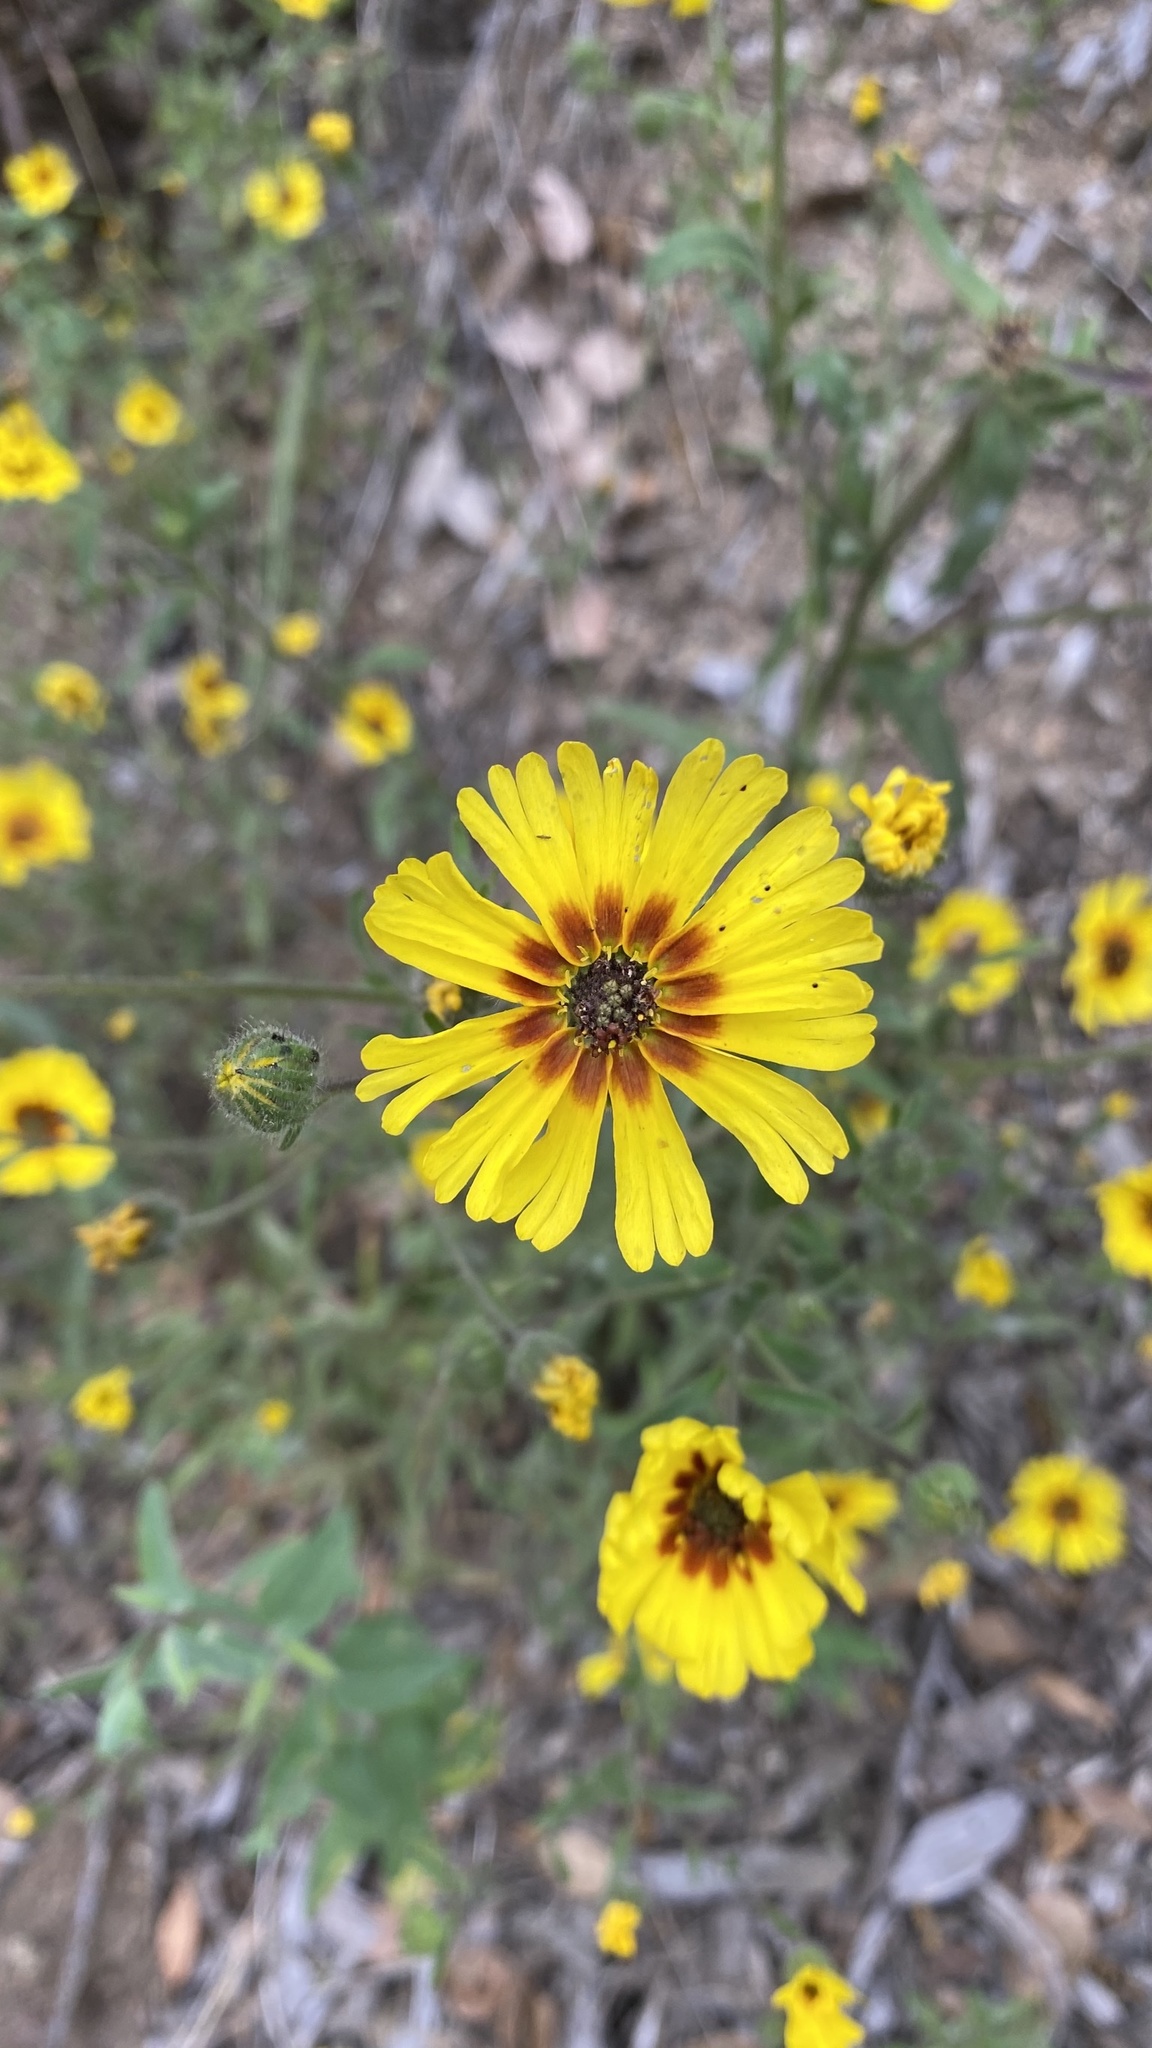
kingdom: Plantae
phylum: Tracheophyta
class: Magnoliopsida
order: Asterales
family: Asteraceae
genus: Madia
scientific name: Madia elegans
